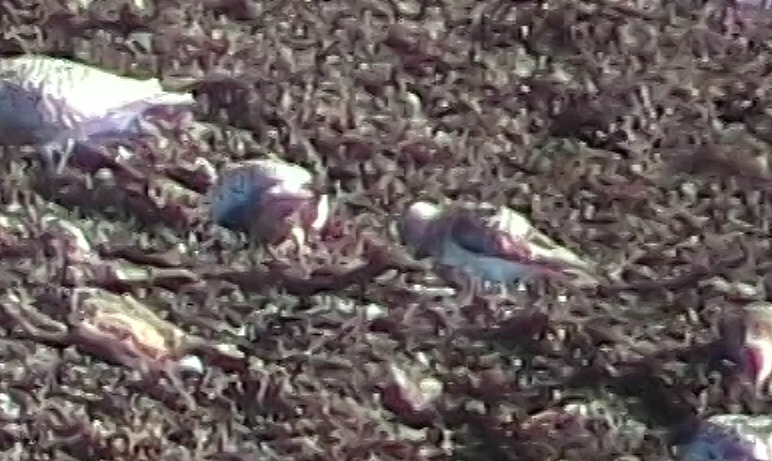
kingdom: Animalia
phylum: Chordata
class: Aves
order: Charadriiformes
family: Scolopacidae
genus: Calidris
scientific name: Calidris alpina
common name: Dunlin
